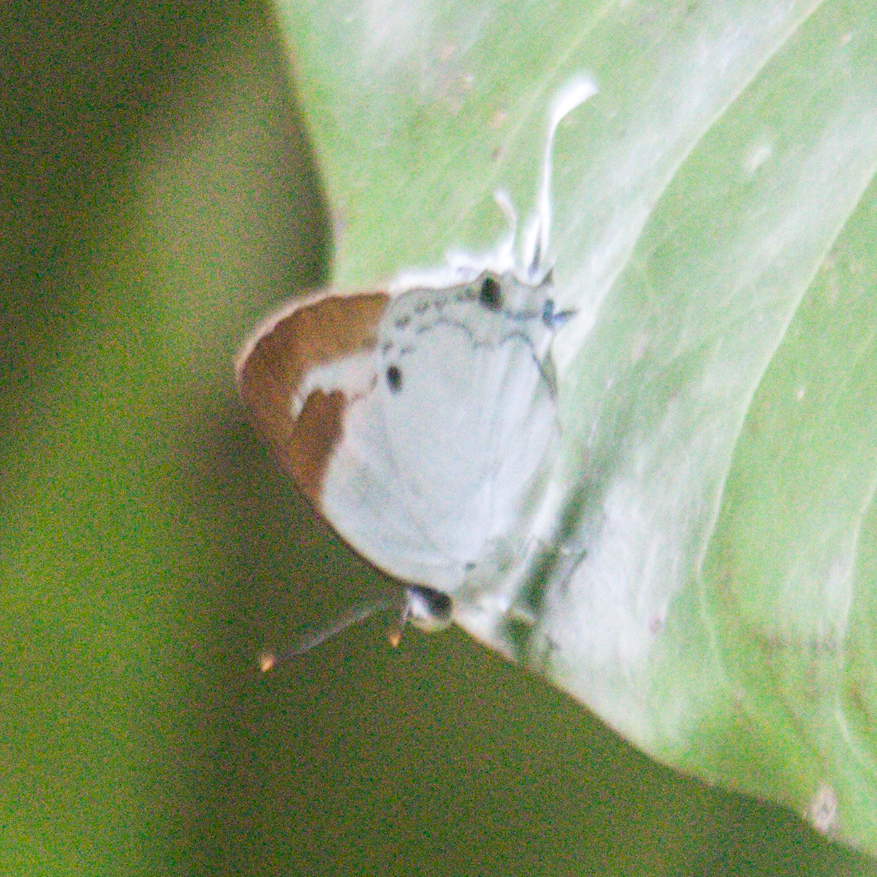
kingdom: Animalia
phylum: Arthropoda
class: Insecta
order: Lepidoptera
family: Lycaenidae
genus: Suasa
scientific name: Suasa lisides
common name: Red imperial
